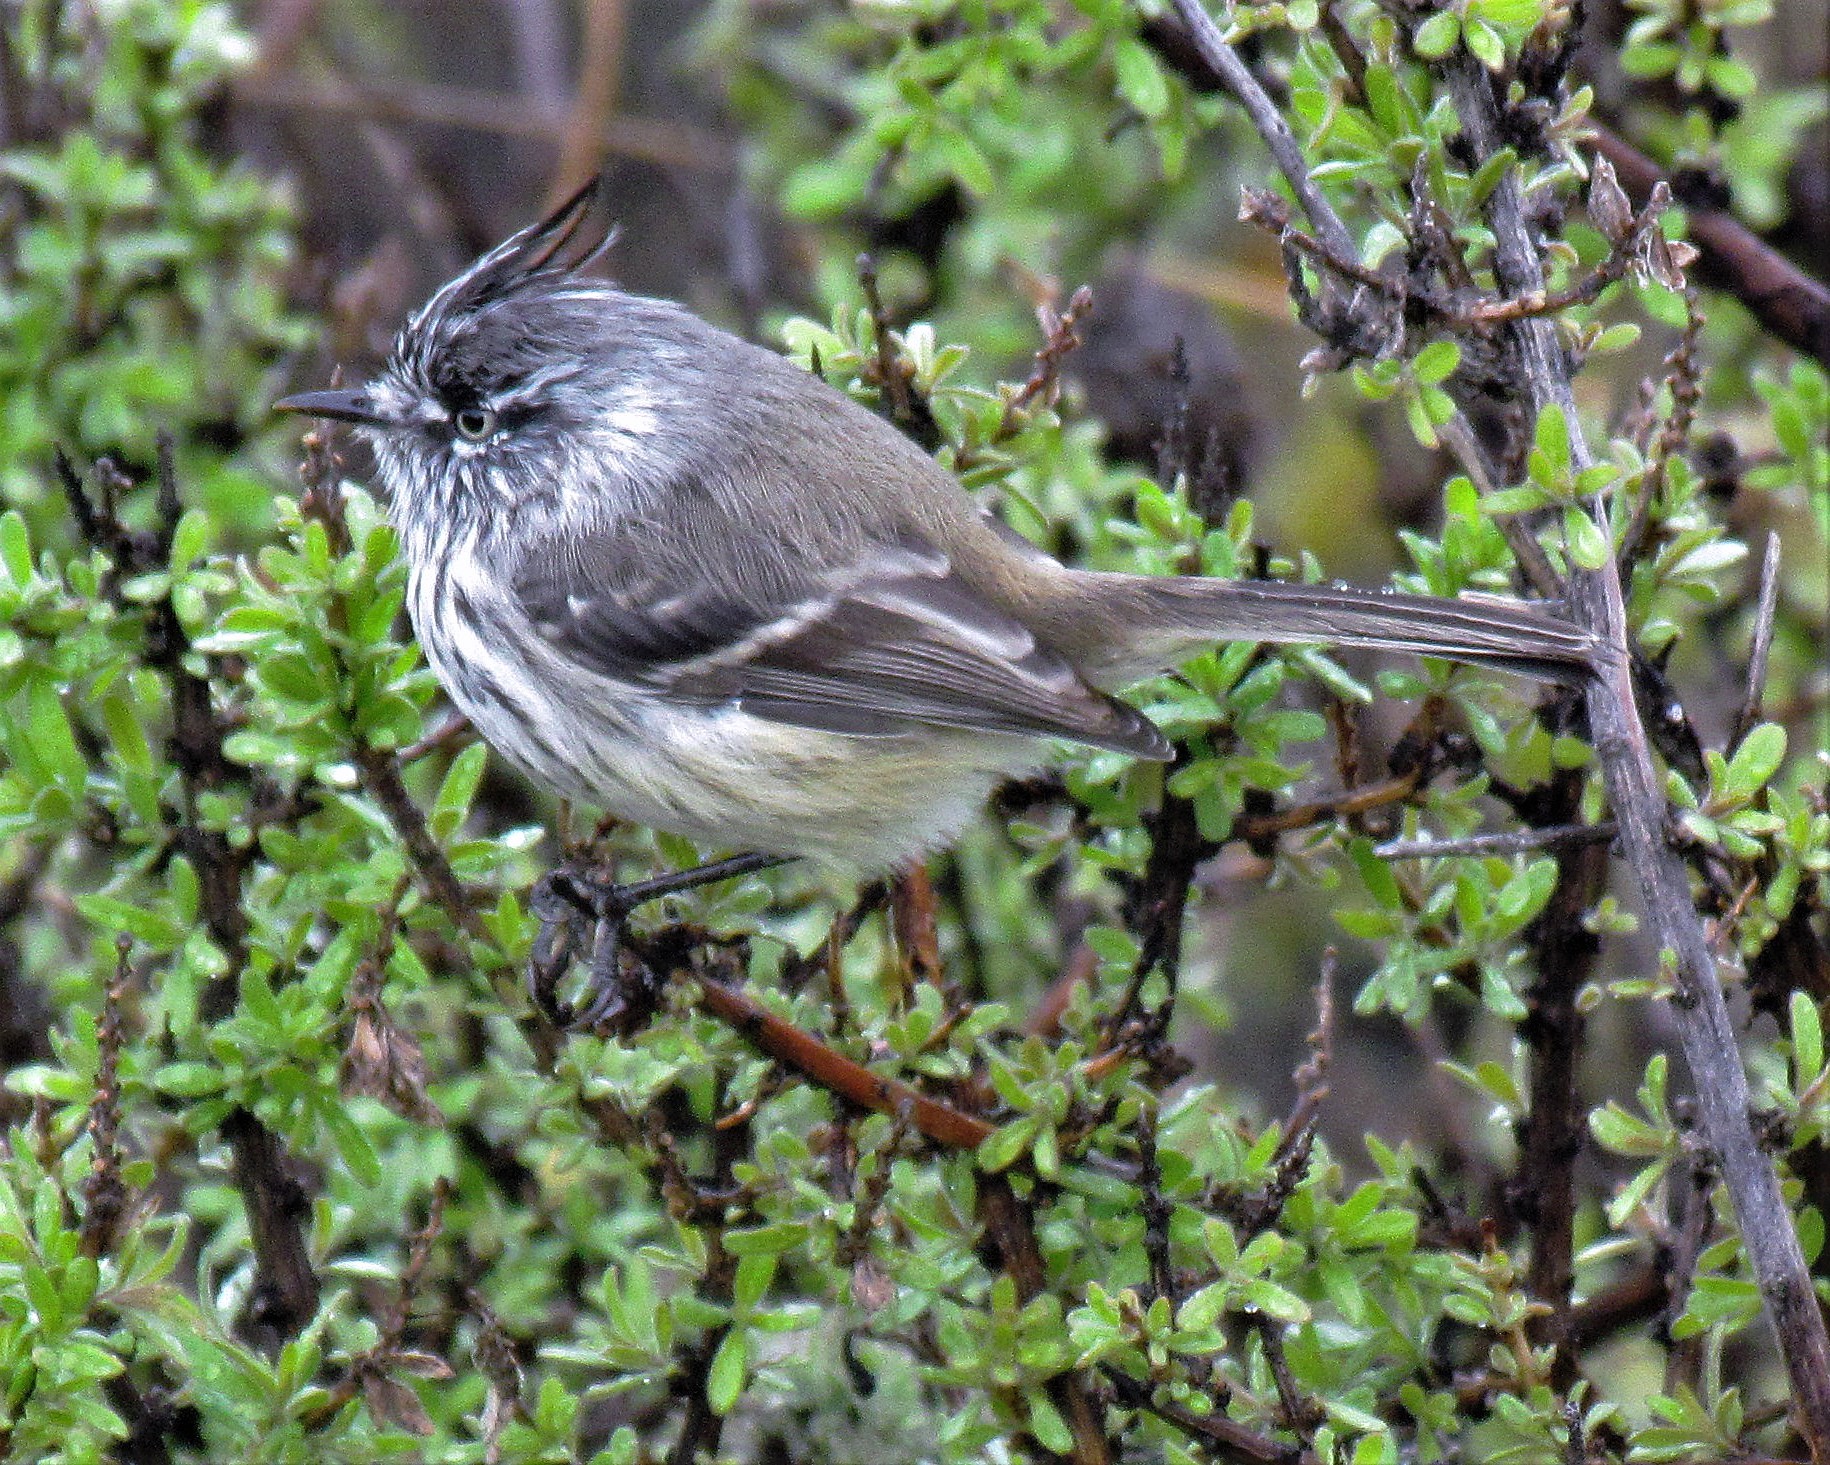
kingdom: Animalia
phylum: Chordata
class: Aves
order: Passeriformes
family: Tyrannidae
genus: Anairetes
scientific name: Anairetes parulus
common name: Tufted tit-tyrant
